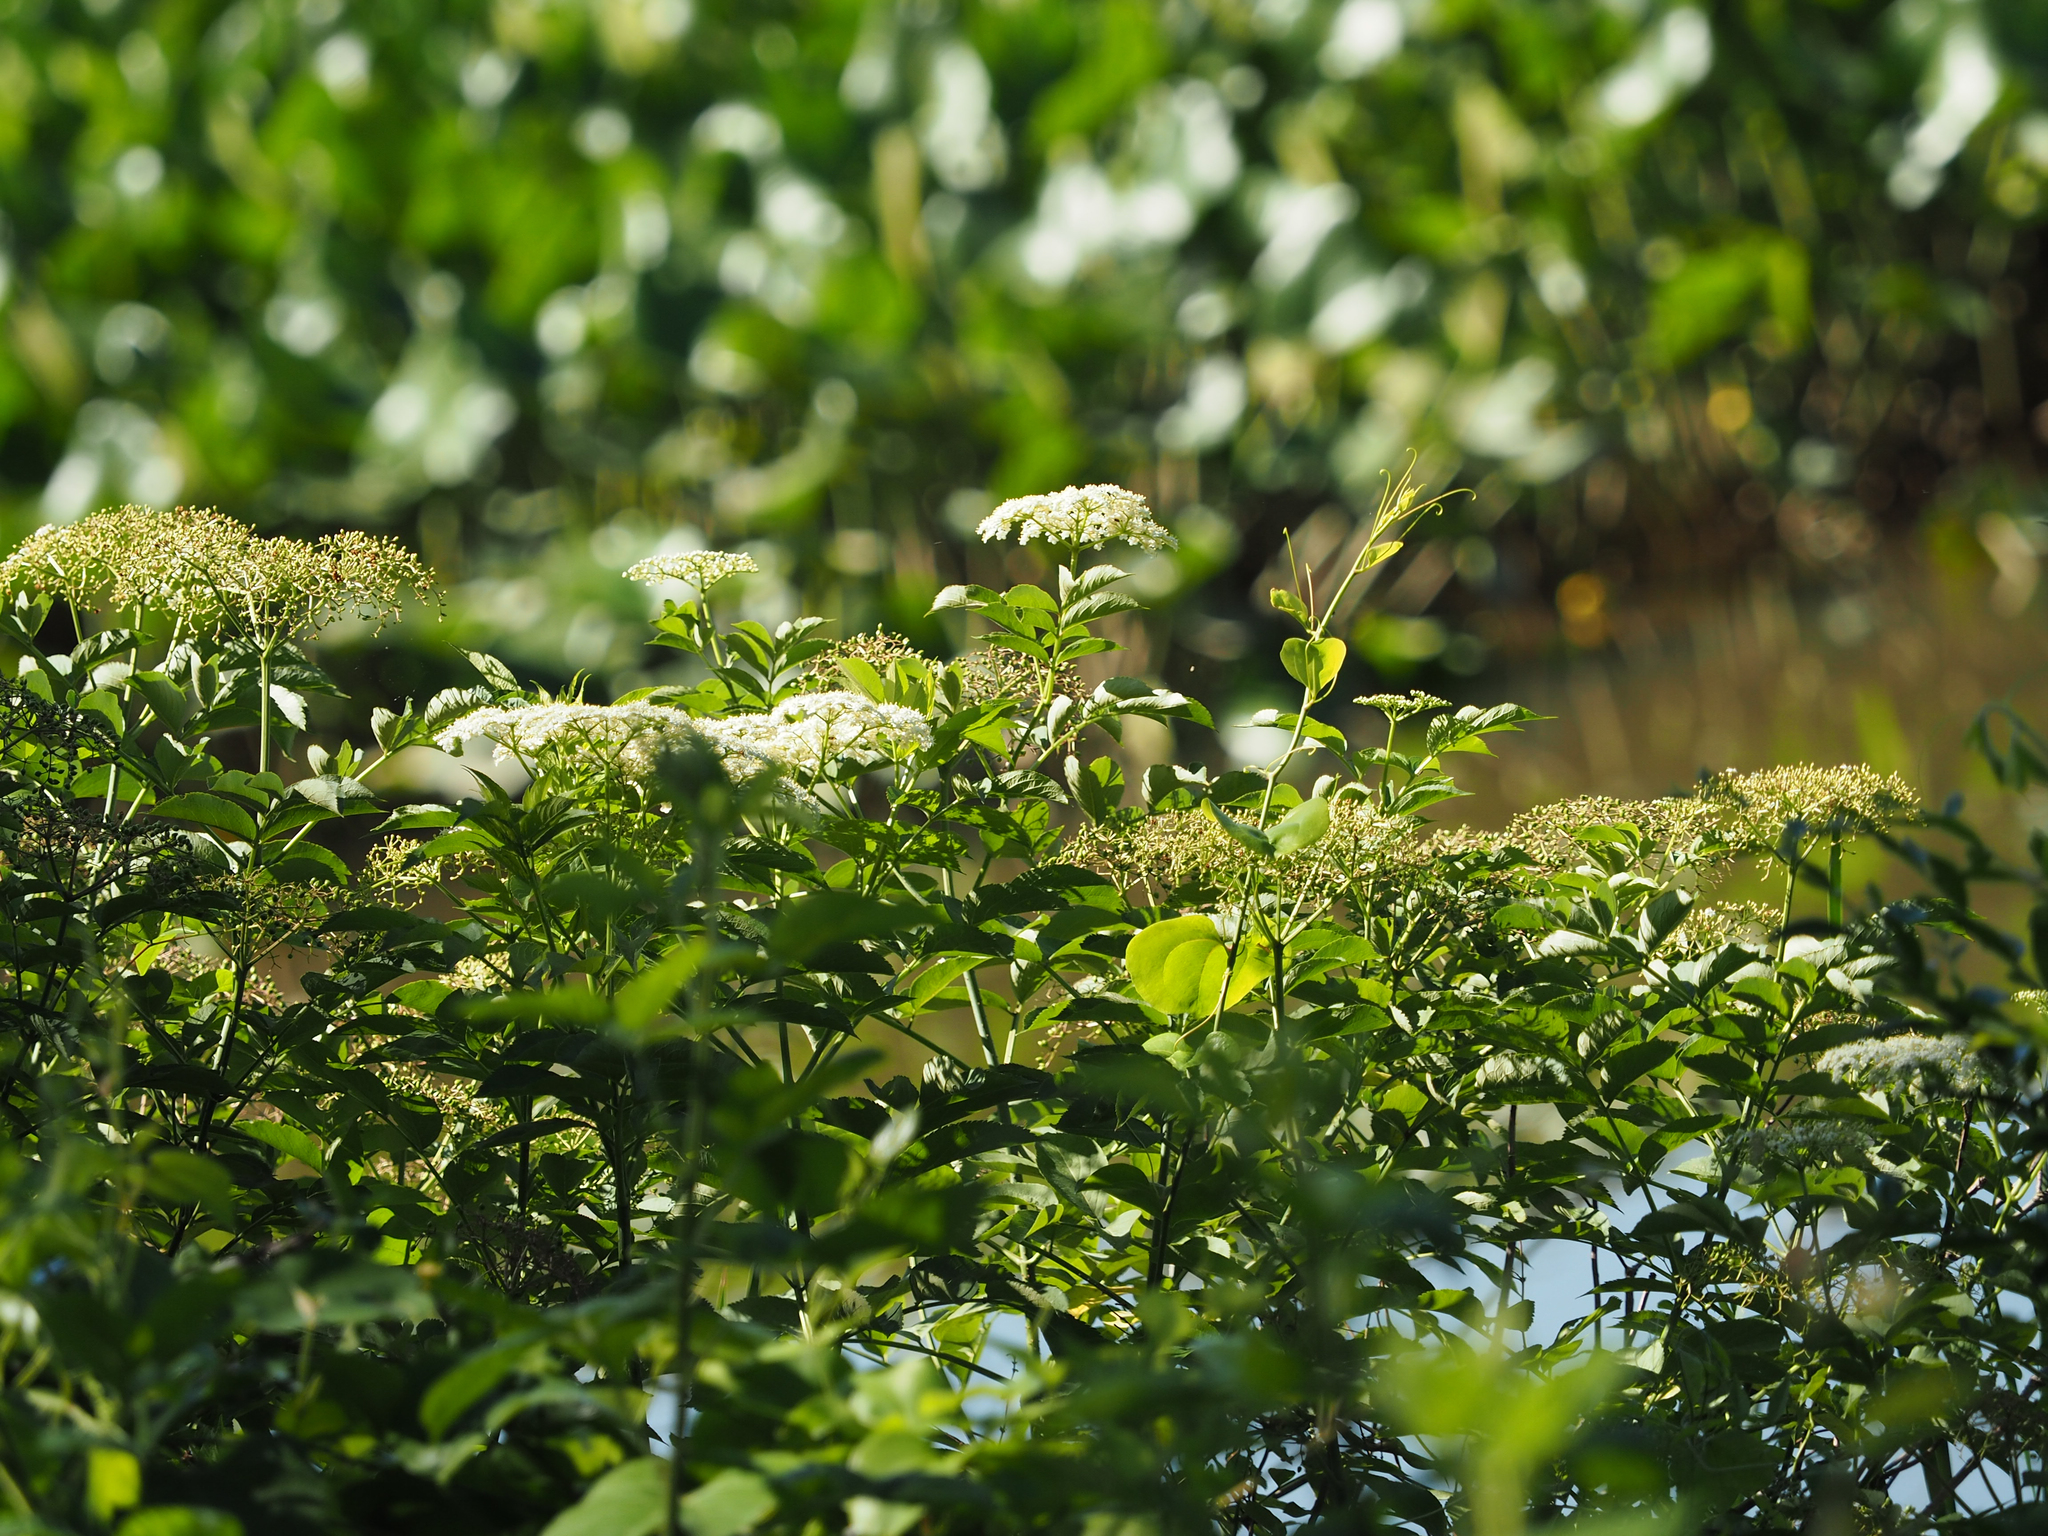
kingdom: Plantae
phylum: Tracheophyta
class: Magnoliopsida
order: Dipsacales
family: Viburnaceae
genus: Sambucus
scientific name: Sambucus canadensis
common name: American elder
